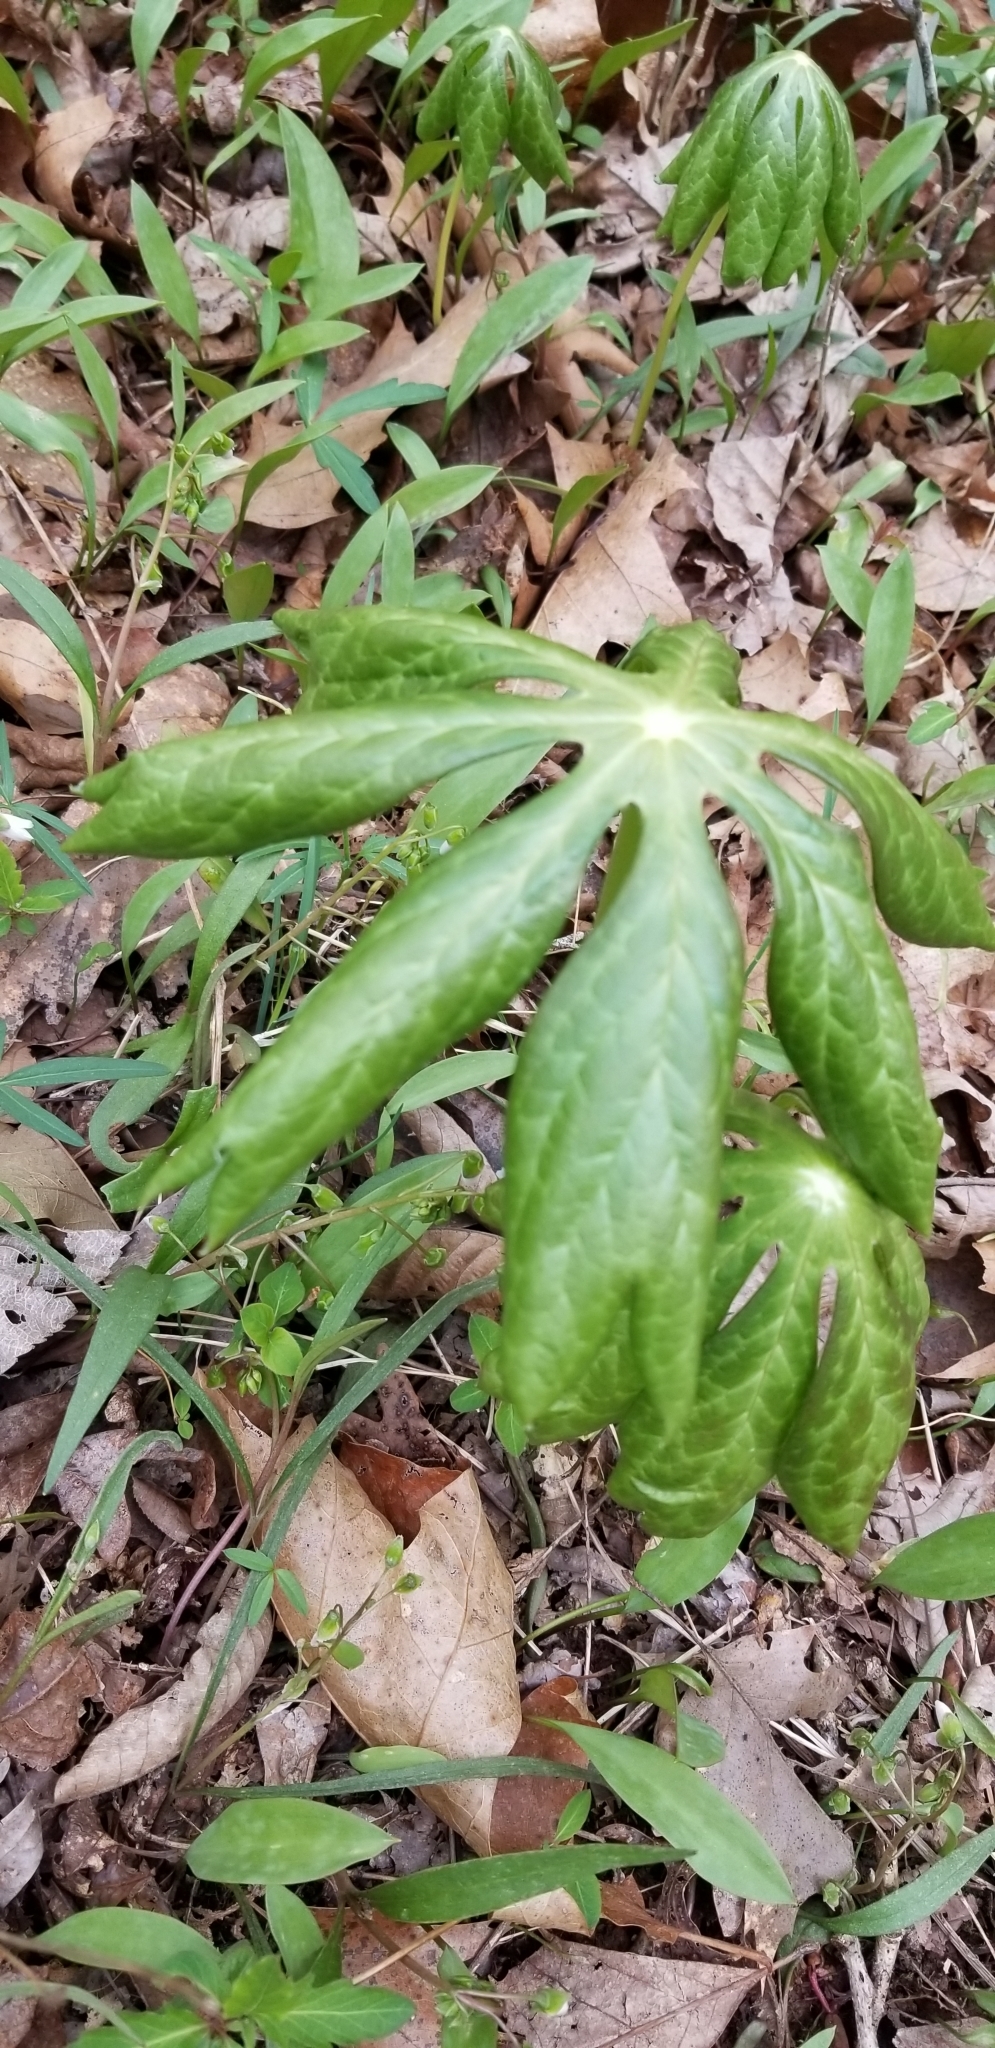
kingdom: Plantae
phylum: Tracheophyta
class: Magnoliopsida
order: Ranunculales
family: Berberidaceae
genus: Podophyllum
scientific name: Podophyllum peltatum
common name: Wild mandrake
